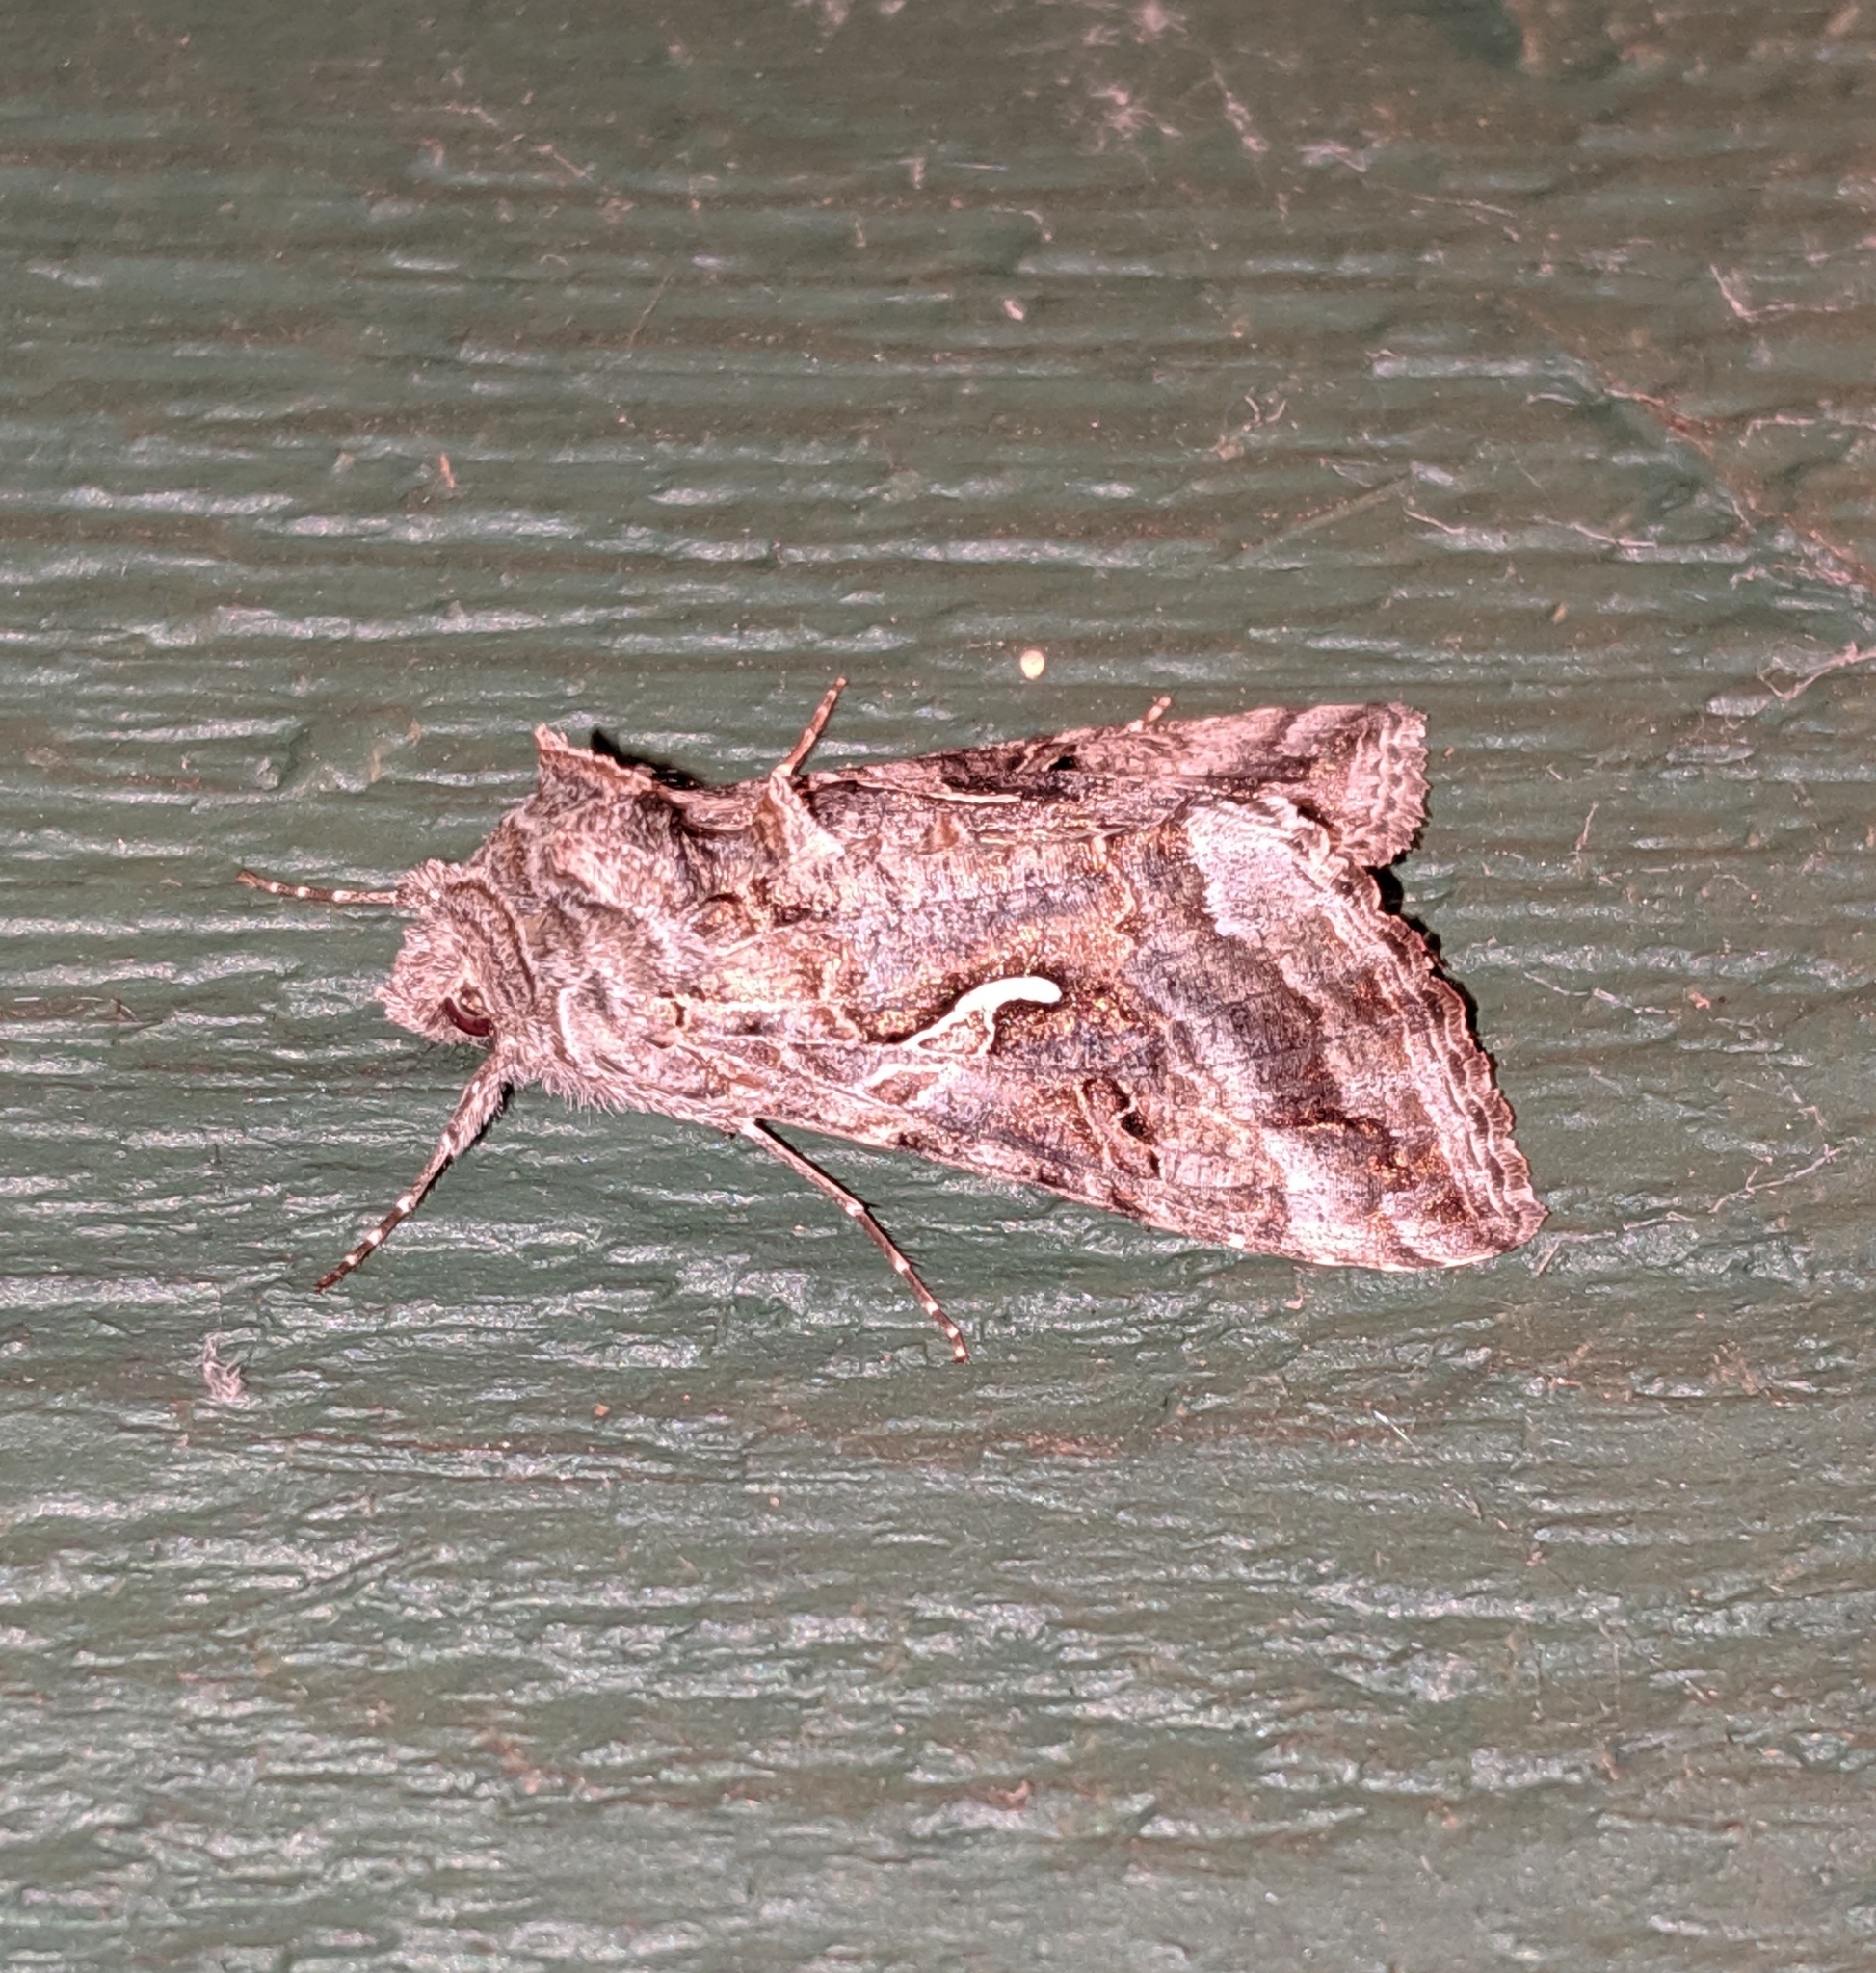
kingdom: Animalia
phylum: Arthropoda
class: Insecta
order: Lepidoptera
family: Noctuidae
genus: Autographa
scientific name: Autographa californica
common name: Alfalfa looper
